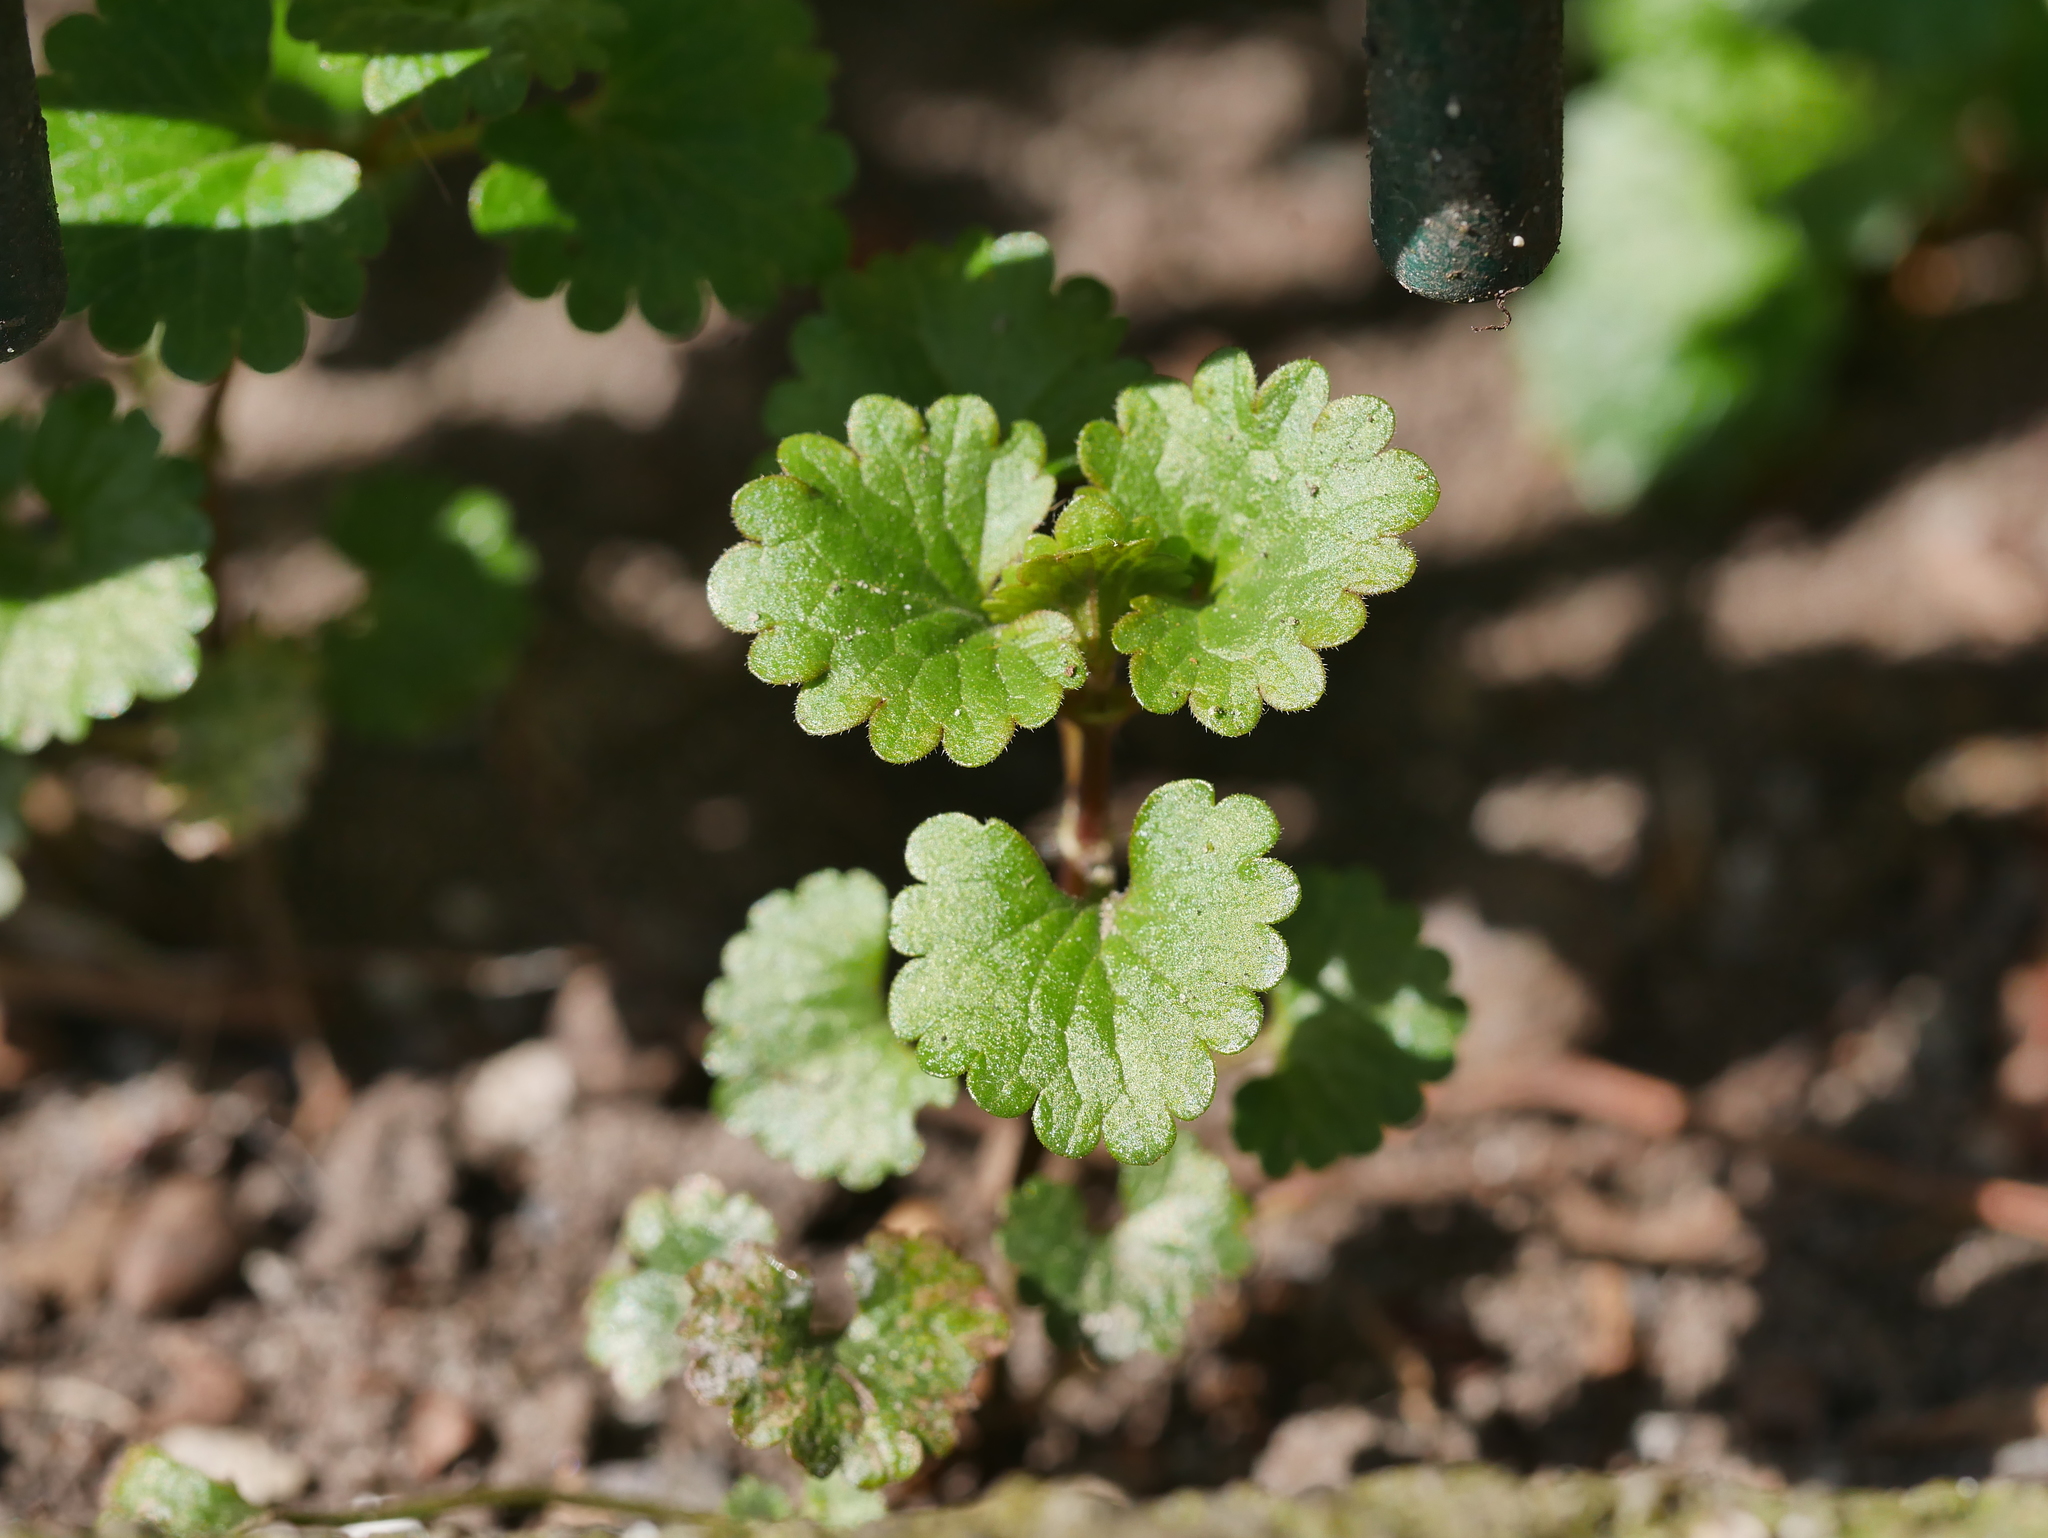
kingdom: Plantae
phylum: Tracheophyta
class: Magnoliopsida
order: Lamiales
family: Lamiaceae
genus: Glechoma
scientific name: Glechoma hederacea
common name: Ground ivy
